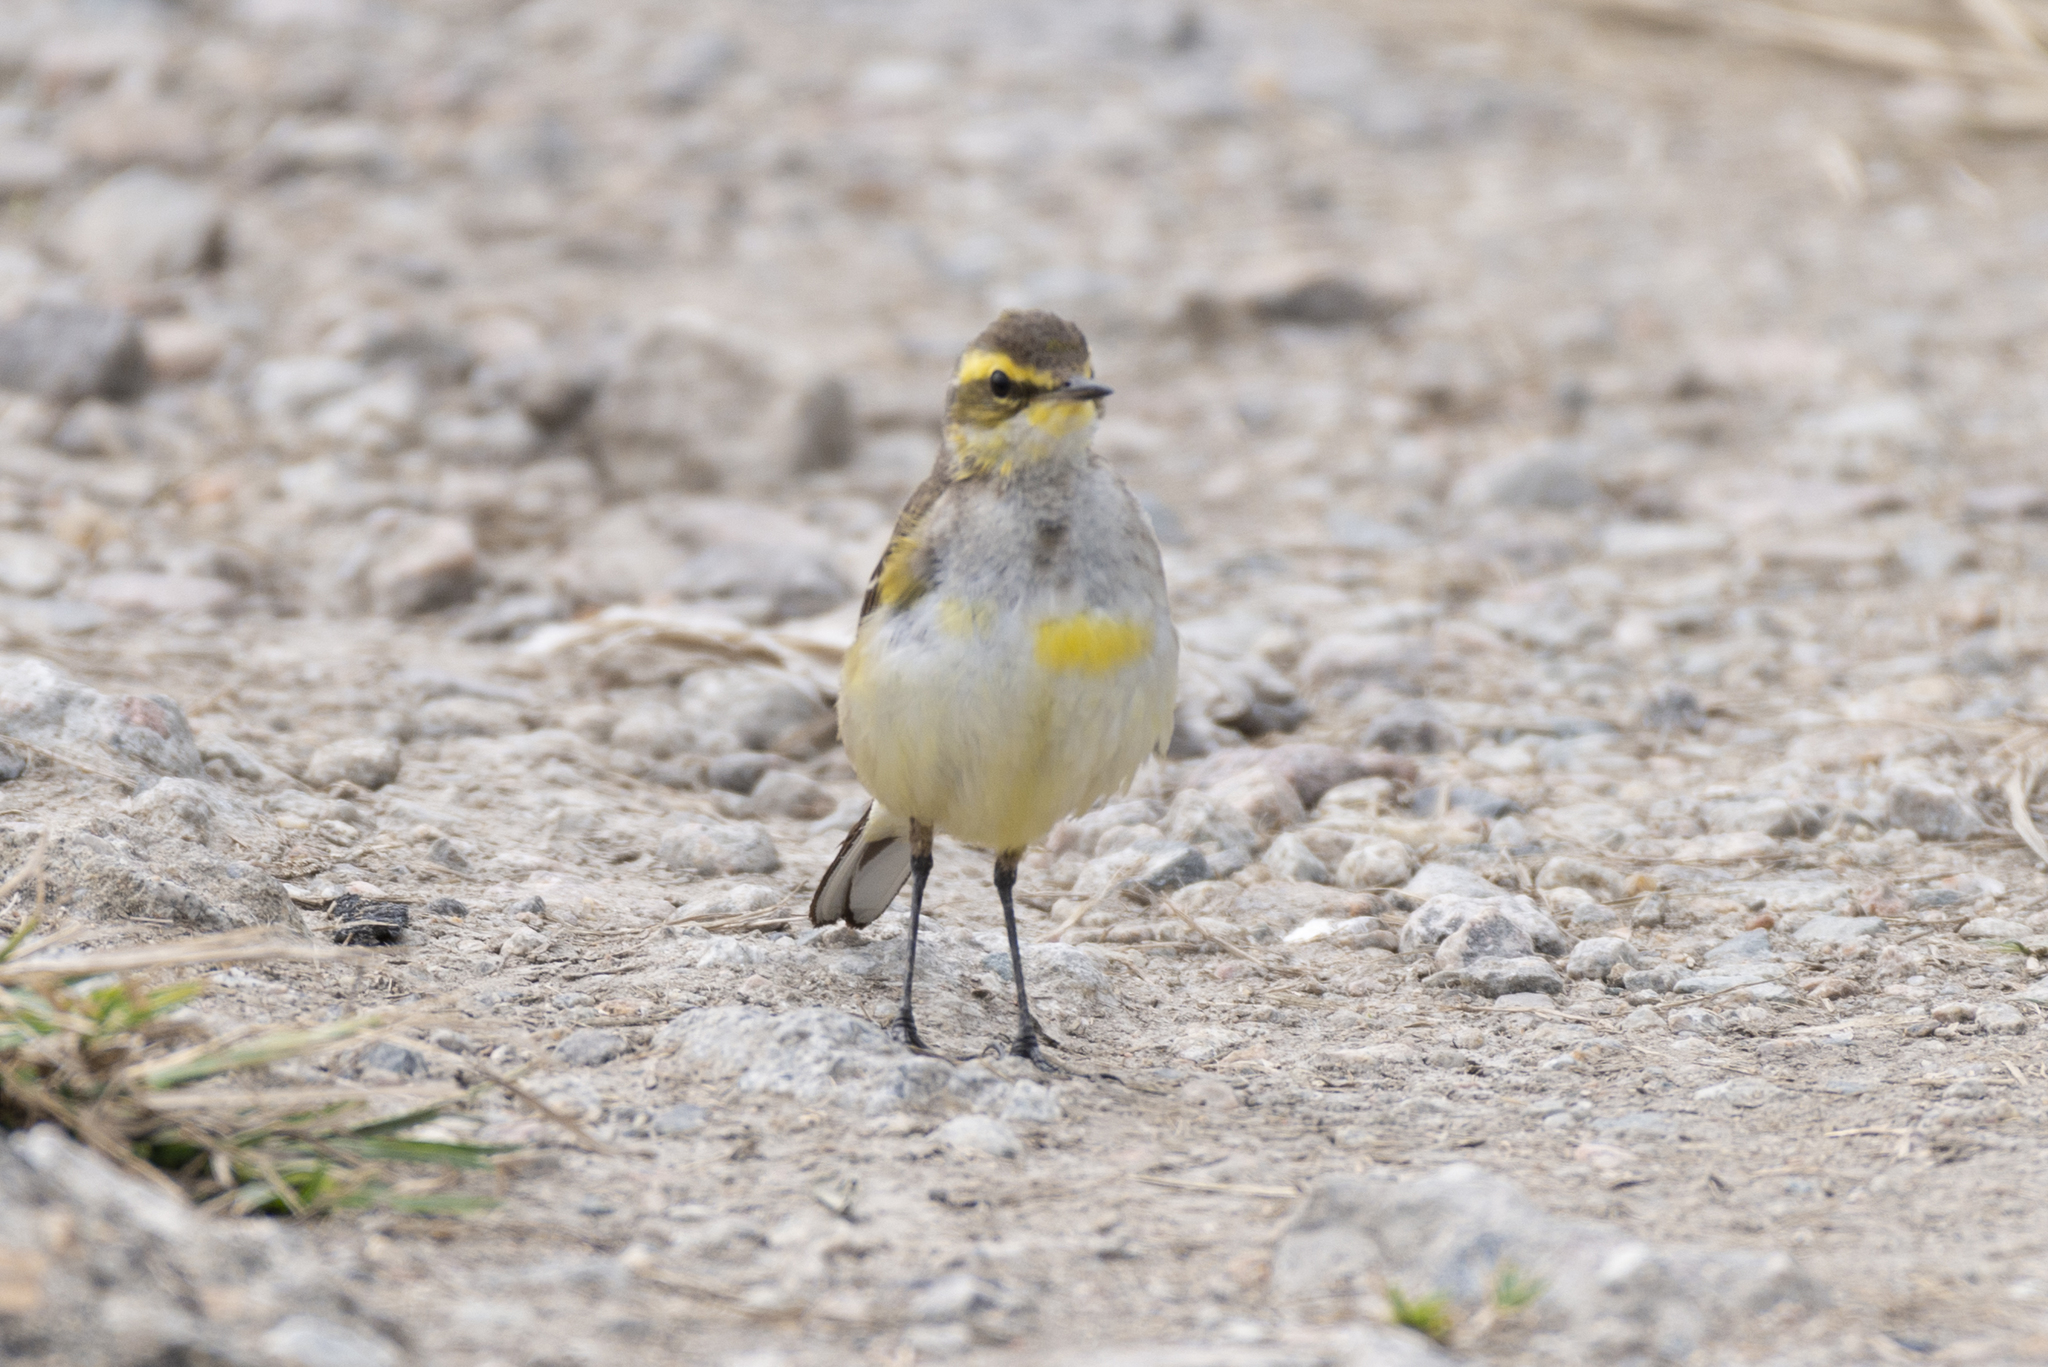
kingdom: Animalia
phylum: Chordata
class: Aves
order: Passeriformes
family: Motacillidae
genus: Motacilla
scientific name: Motacilla tschutschensis
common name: Eastern yellow wagtail
